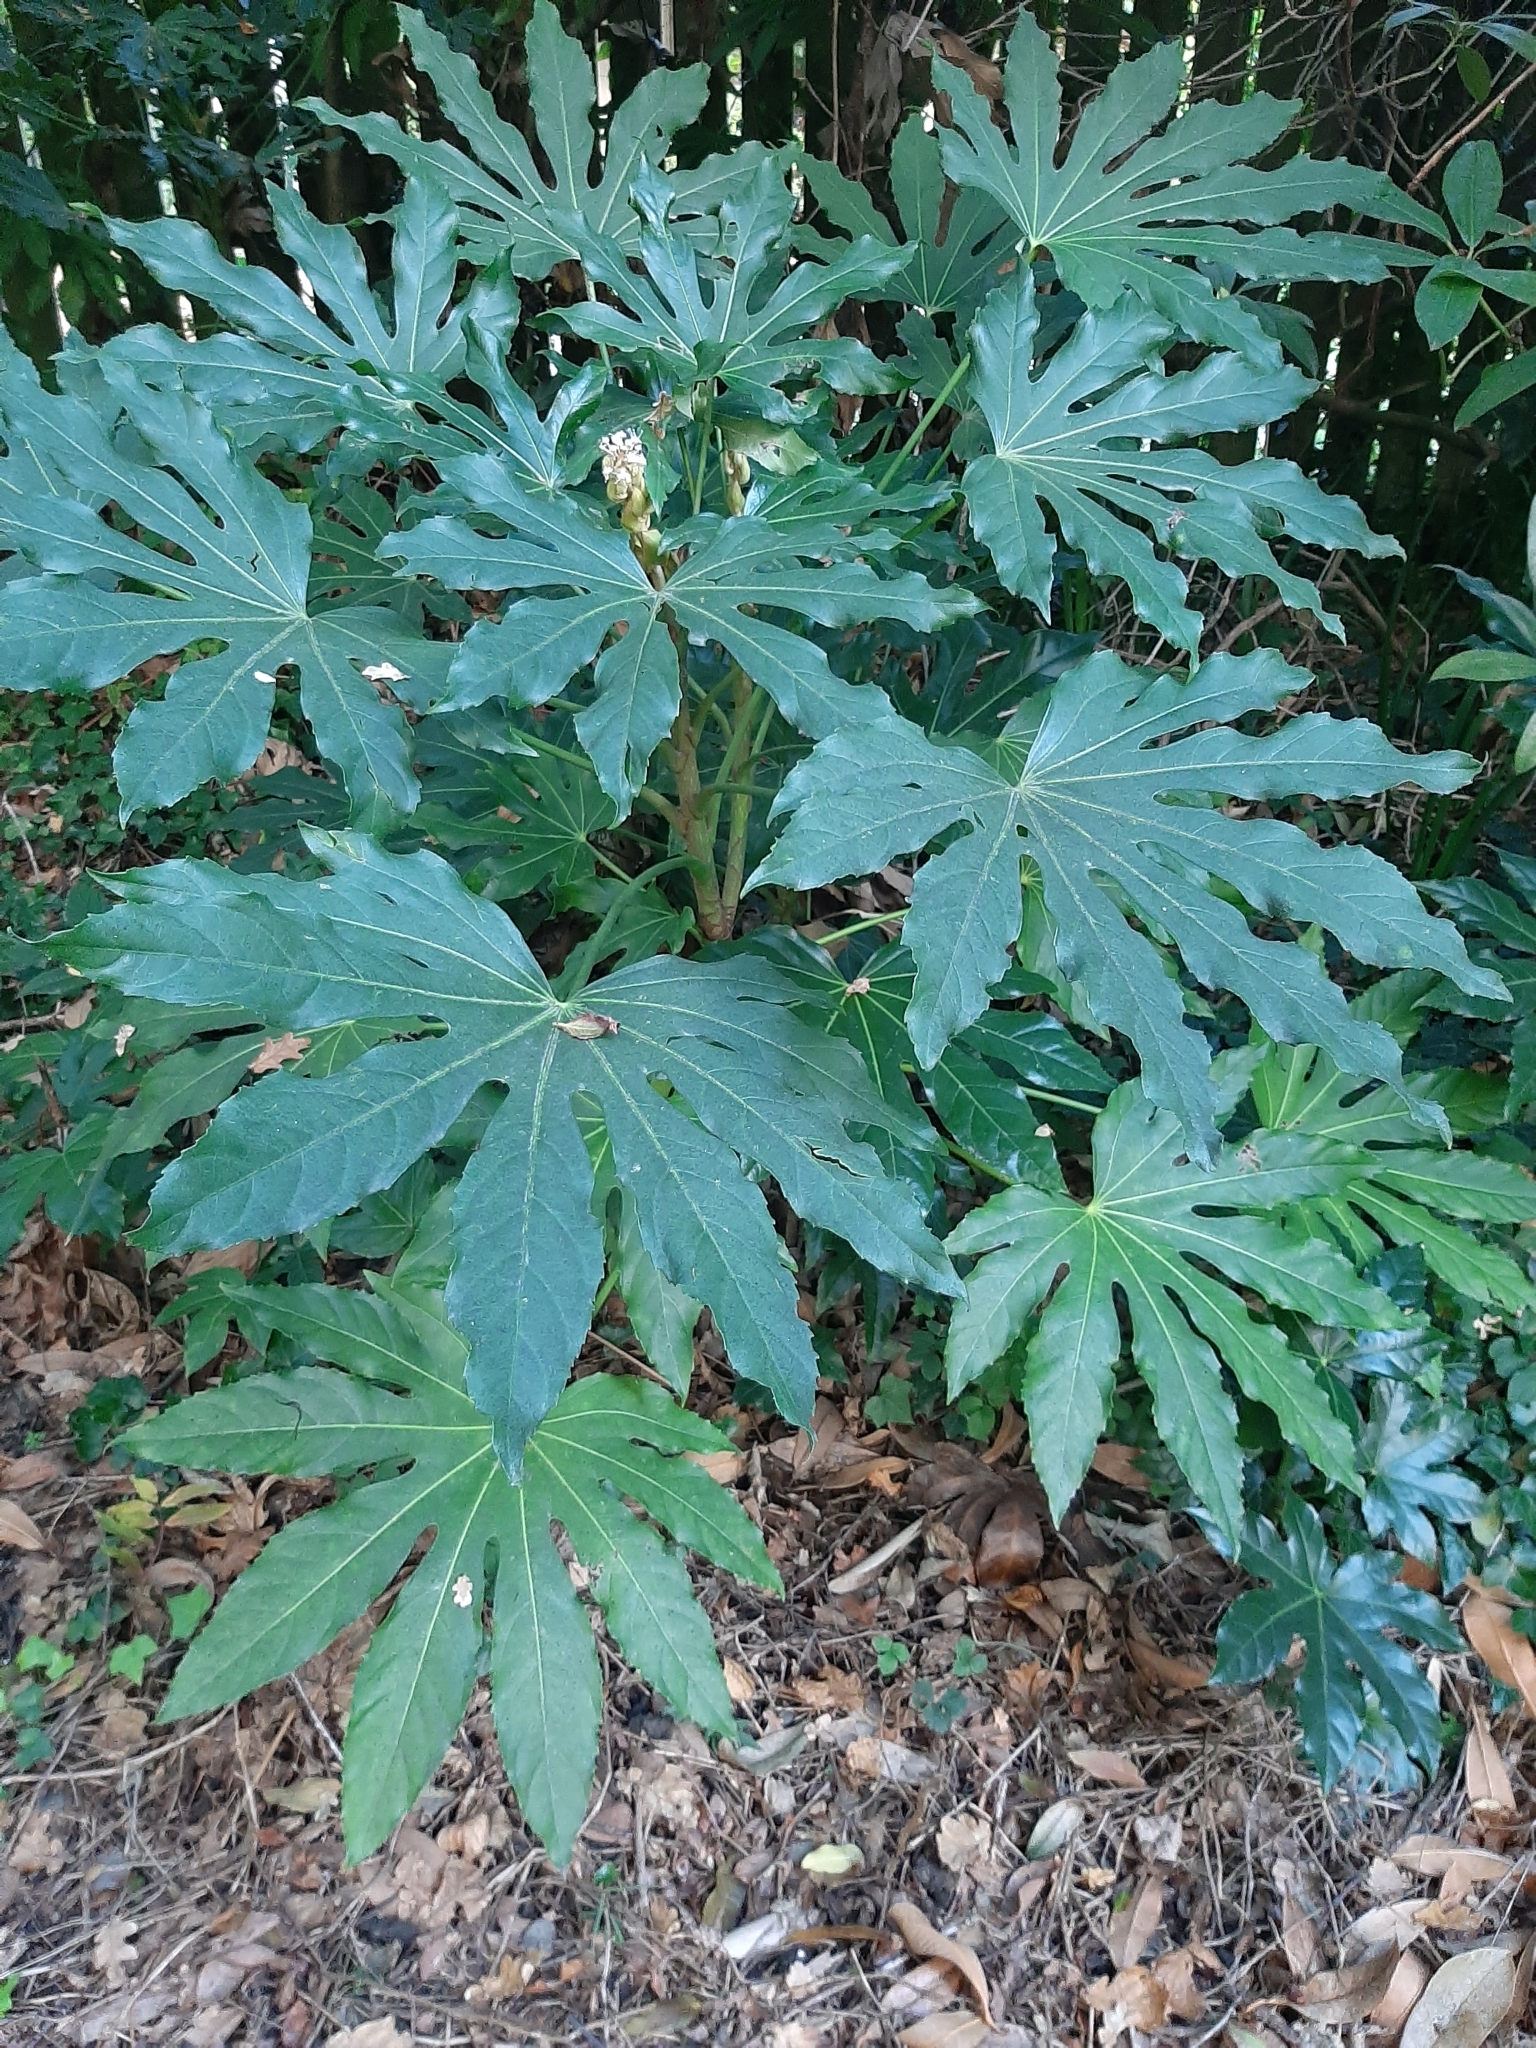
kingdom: Plantae
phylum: Tracheophyta
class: Magnoliopsida
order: Apiales
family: Araliaceae
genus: Fatsia
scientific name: Fatsia japonica
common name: Fatsia
